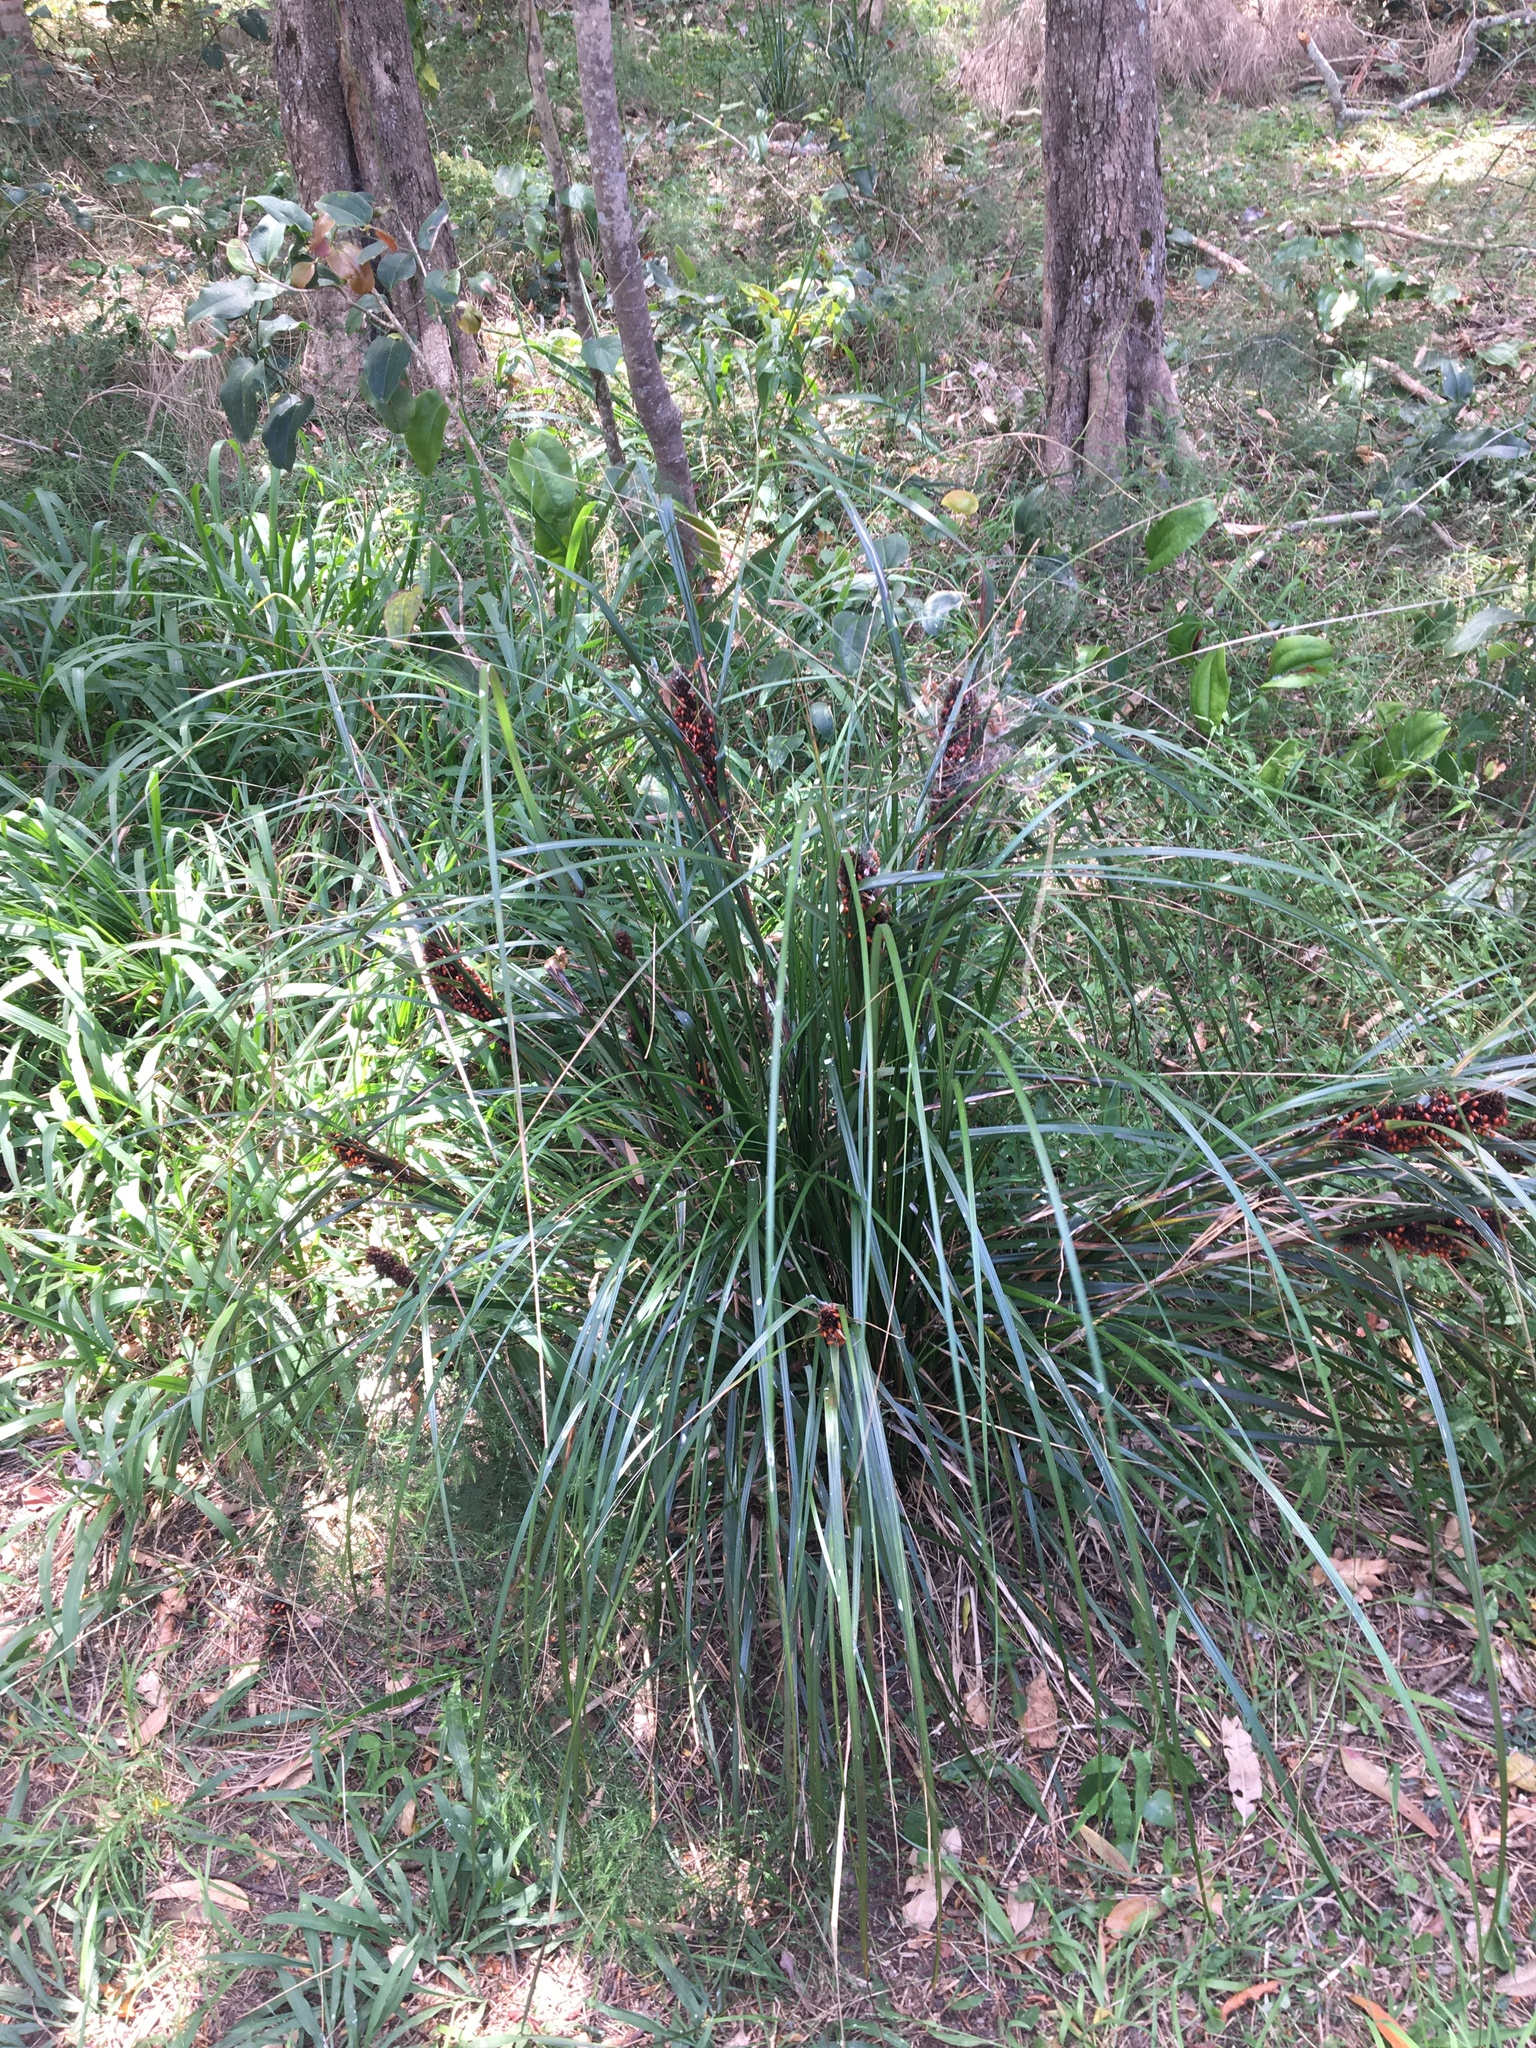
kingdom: Plantae
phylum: Tracheophyta
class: Liliopsida
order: Poales
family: Cyperaceae
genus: Gahnia
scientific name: Gahnia aspera
